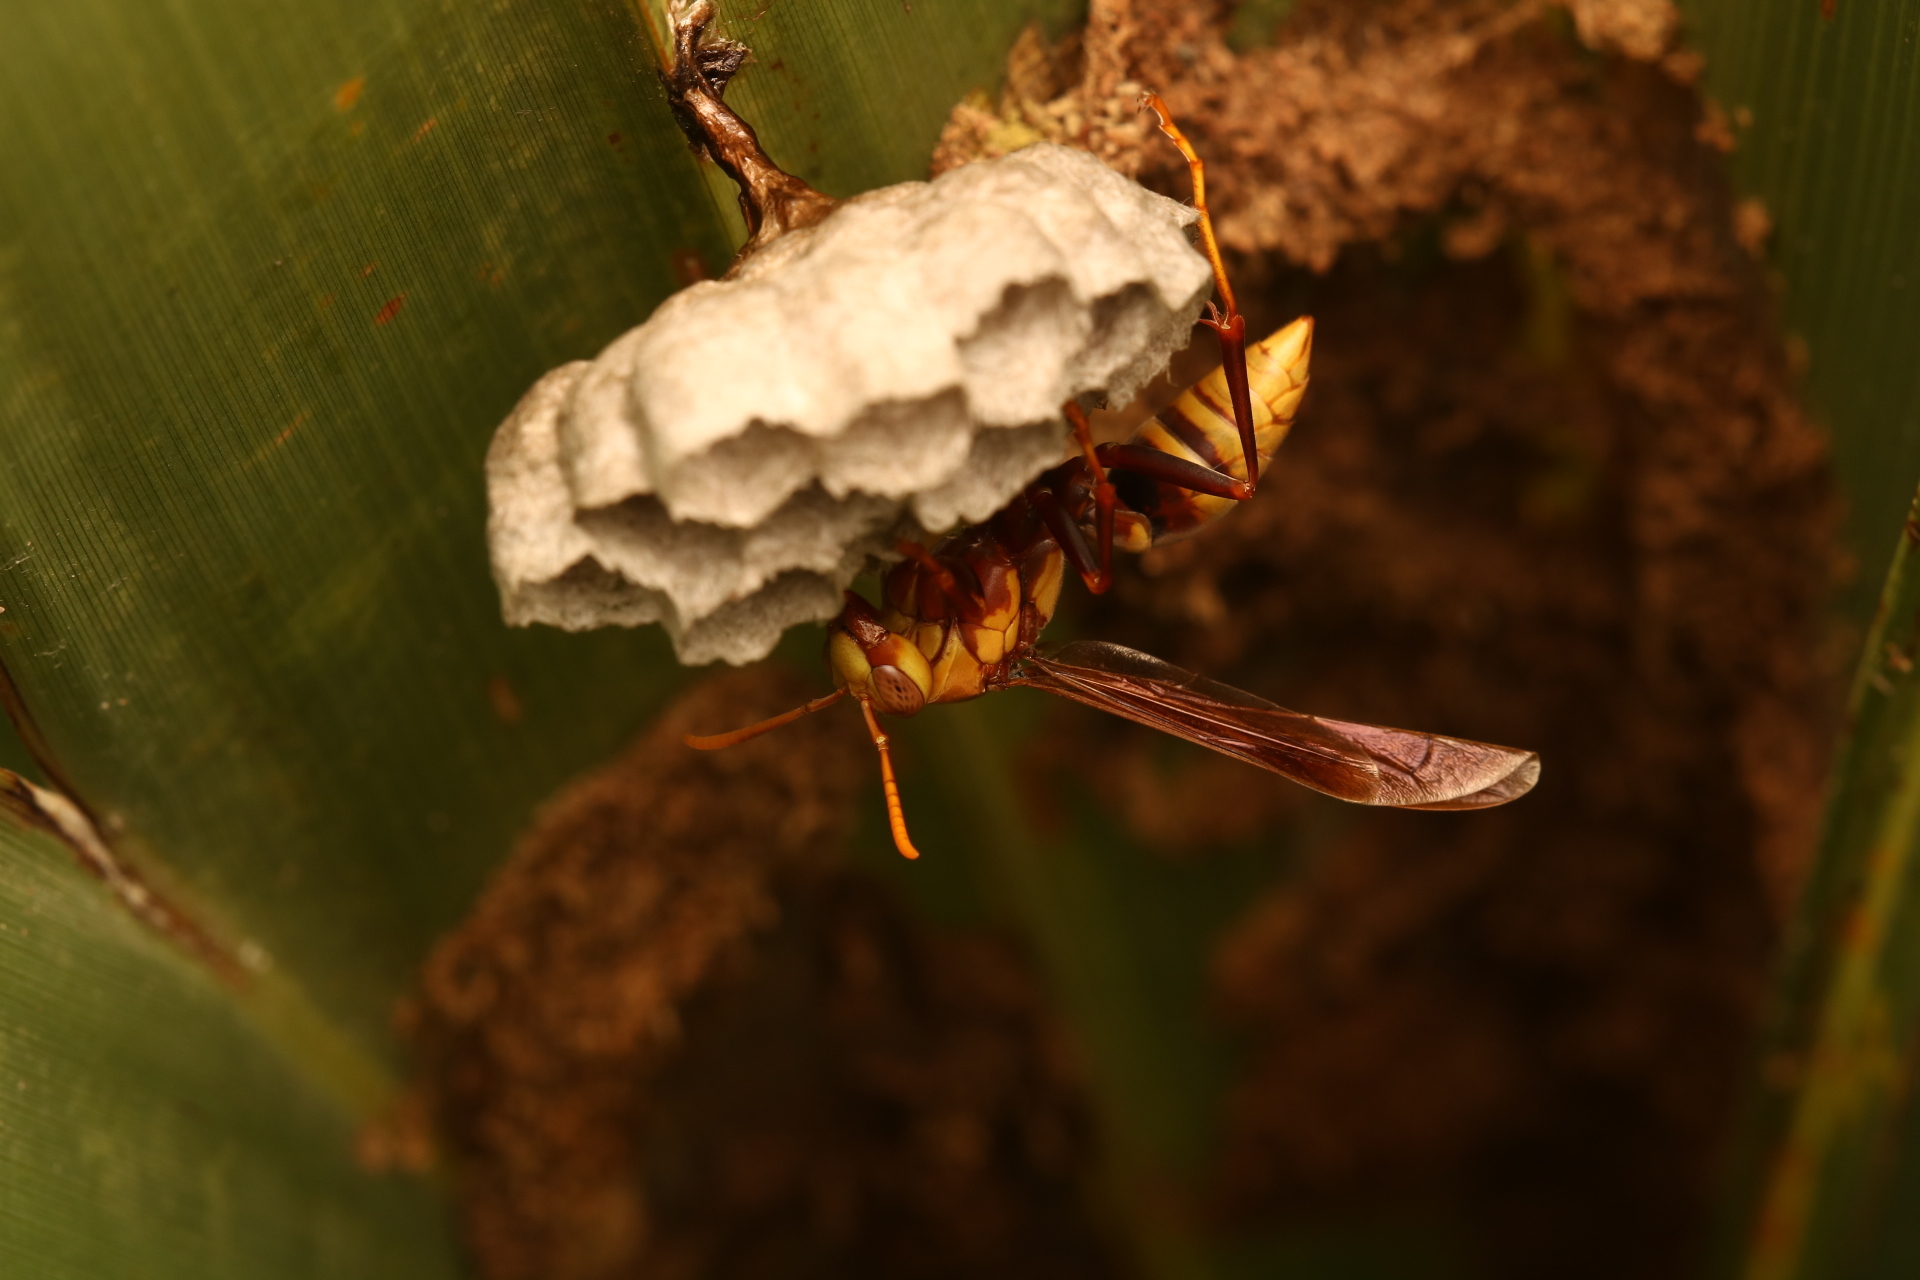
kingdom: Animalia
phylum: Arthropoda
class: Insecta
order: Hymenoptera
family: Eumenidae
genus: Polistes
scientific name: Polistes major
